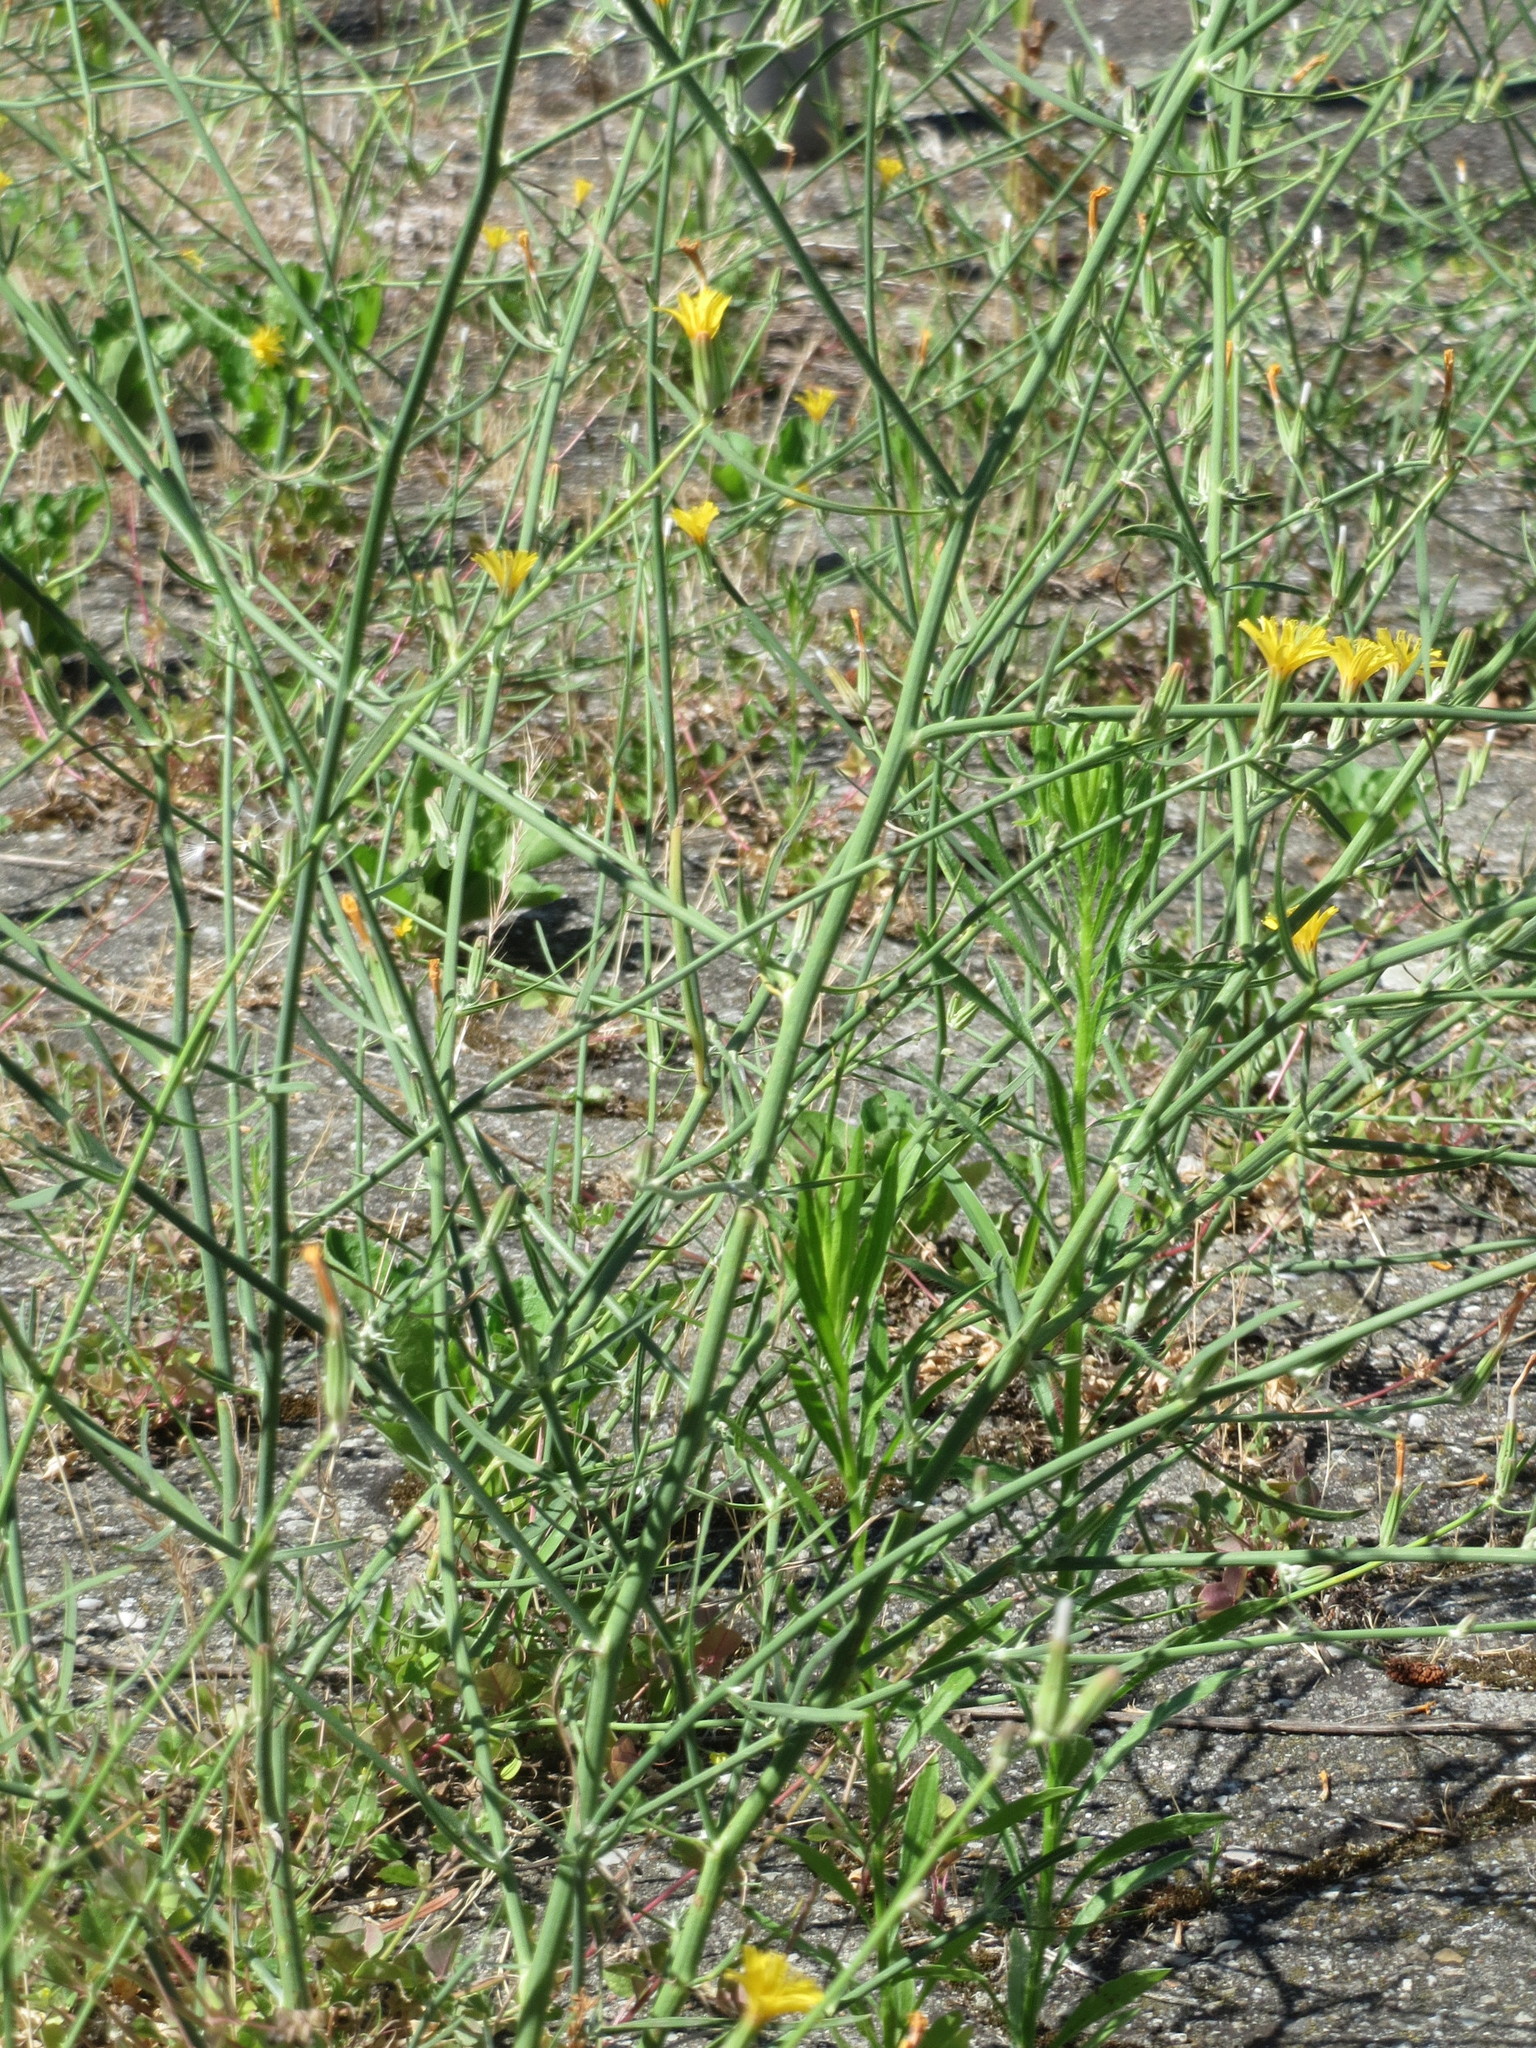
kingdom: Plantae
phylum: Tracheophyta
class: Magnoliopsida
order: Asterales
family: Asteraceae
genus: Chondrilla
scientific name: Chondrilla juncea
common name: Skeleton weed
